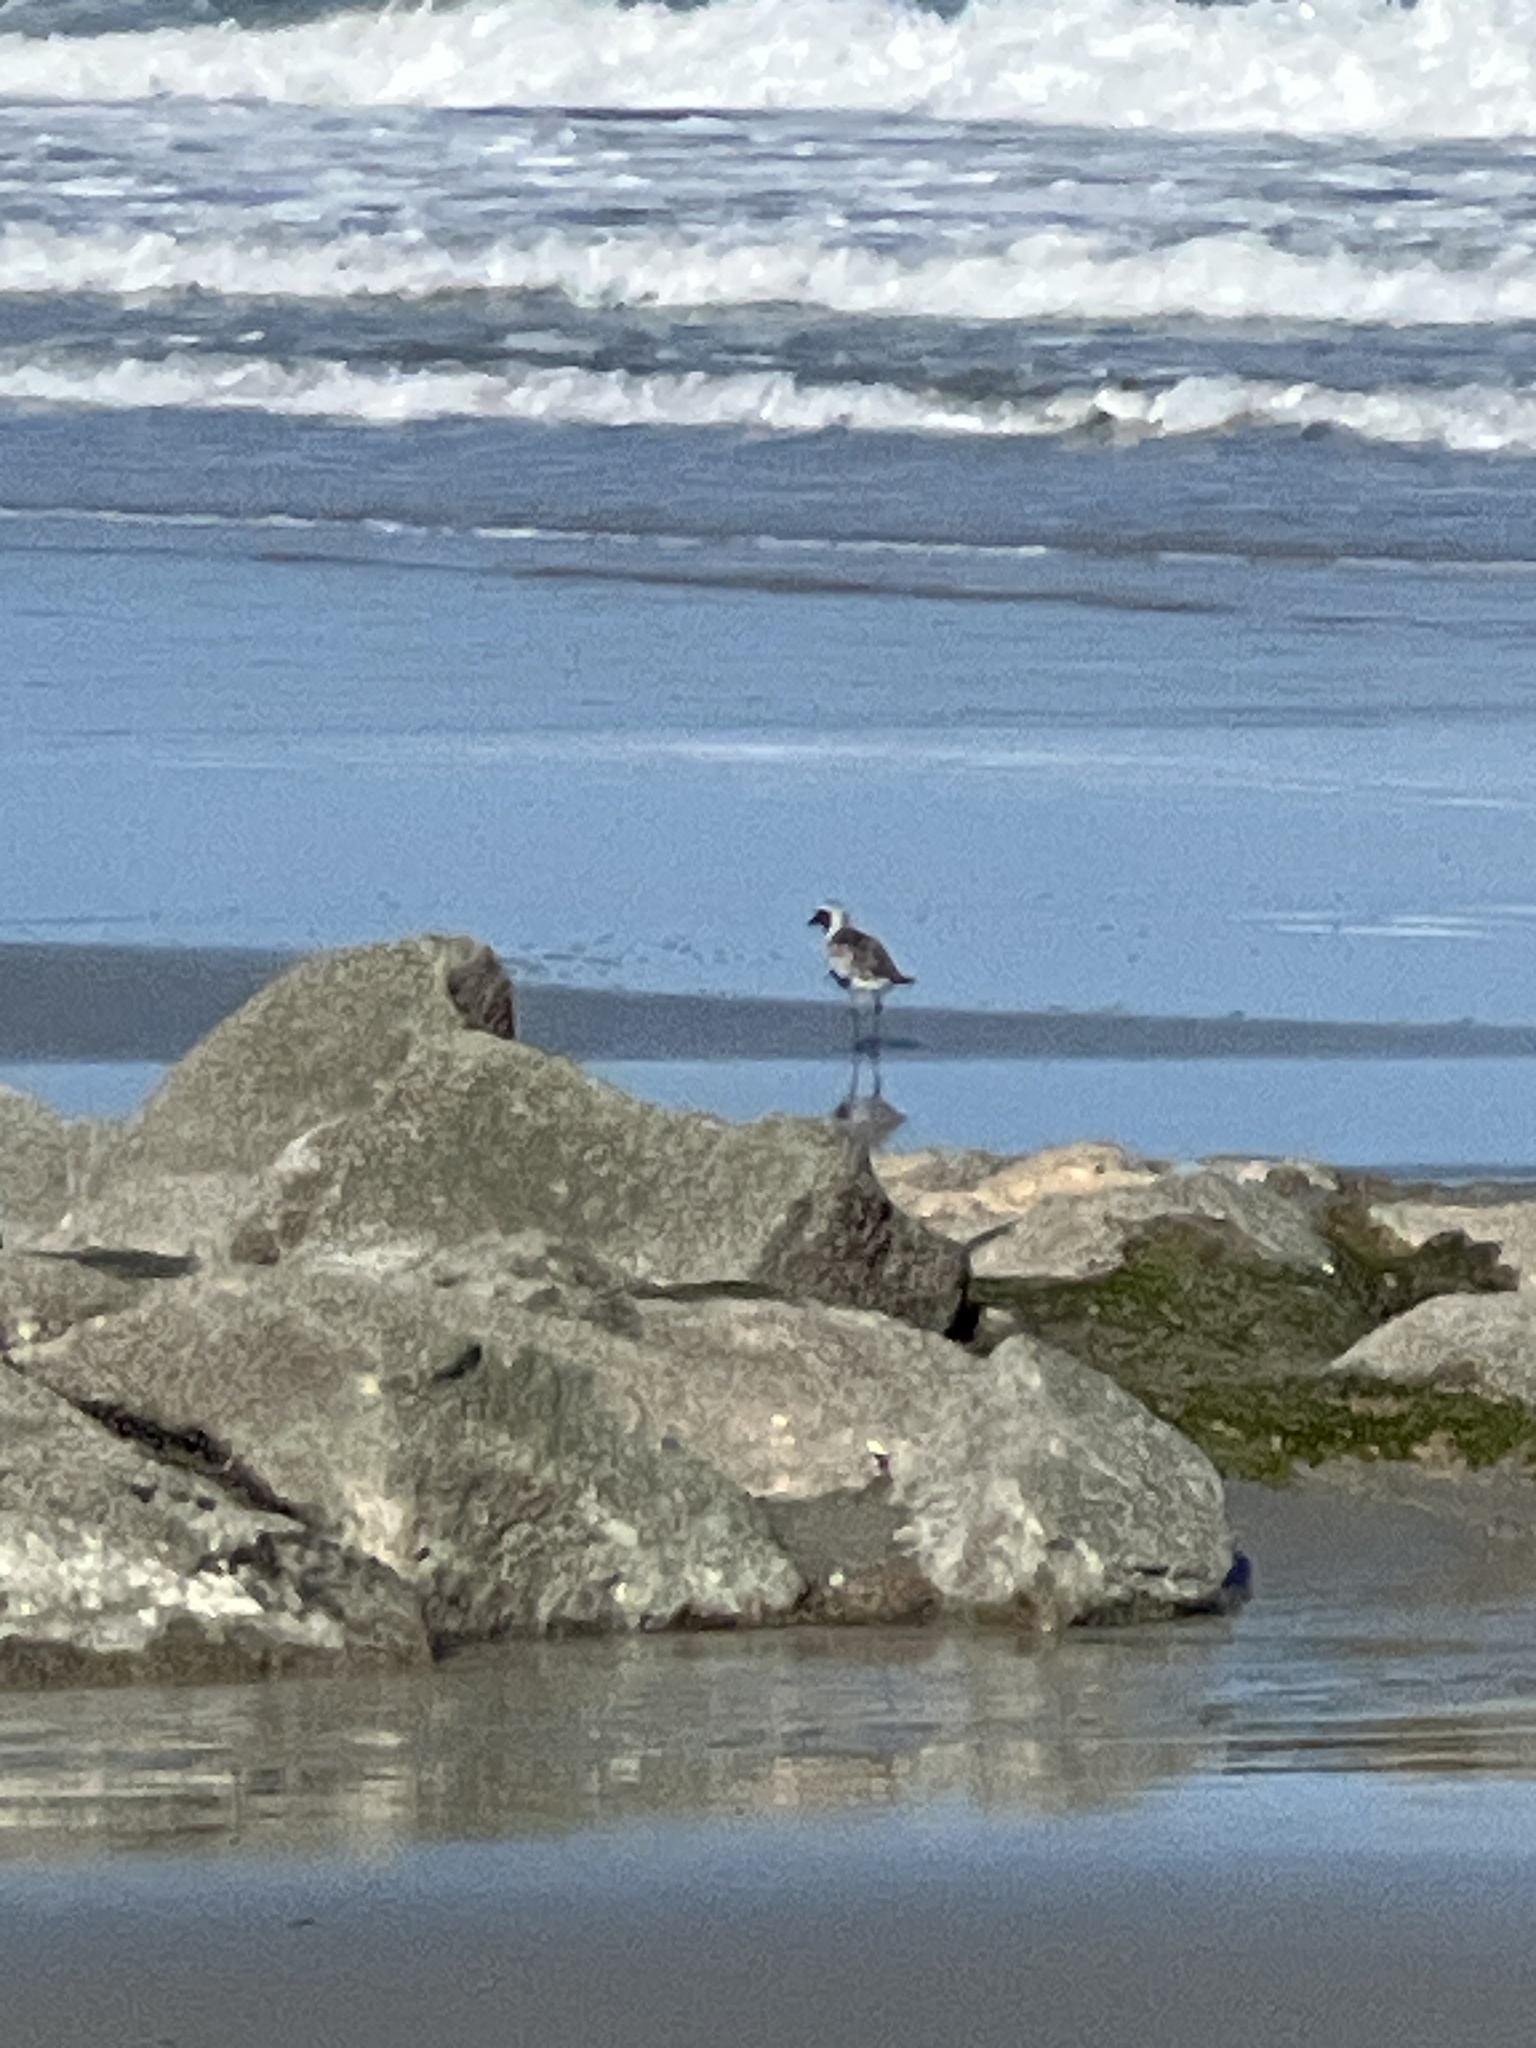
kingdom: Animalia
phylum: Chordata
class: Aves
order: Charadriiformes
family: Charadriidae
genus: Pluvialis
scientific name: Pluvialis squatarola
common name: Grey plover
